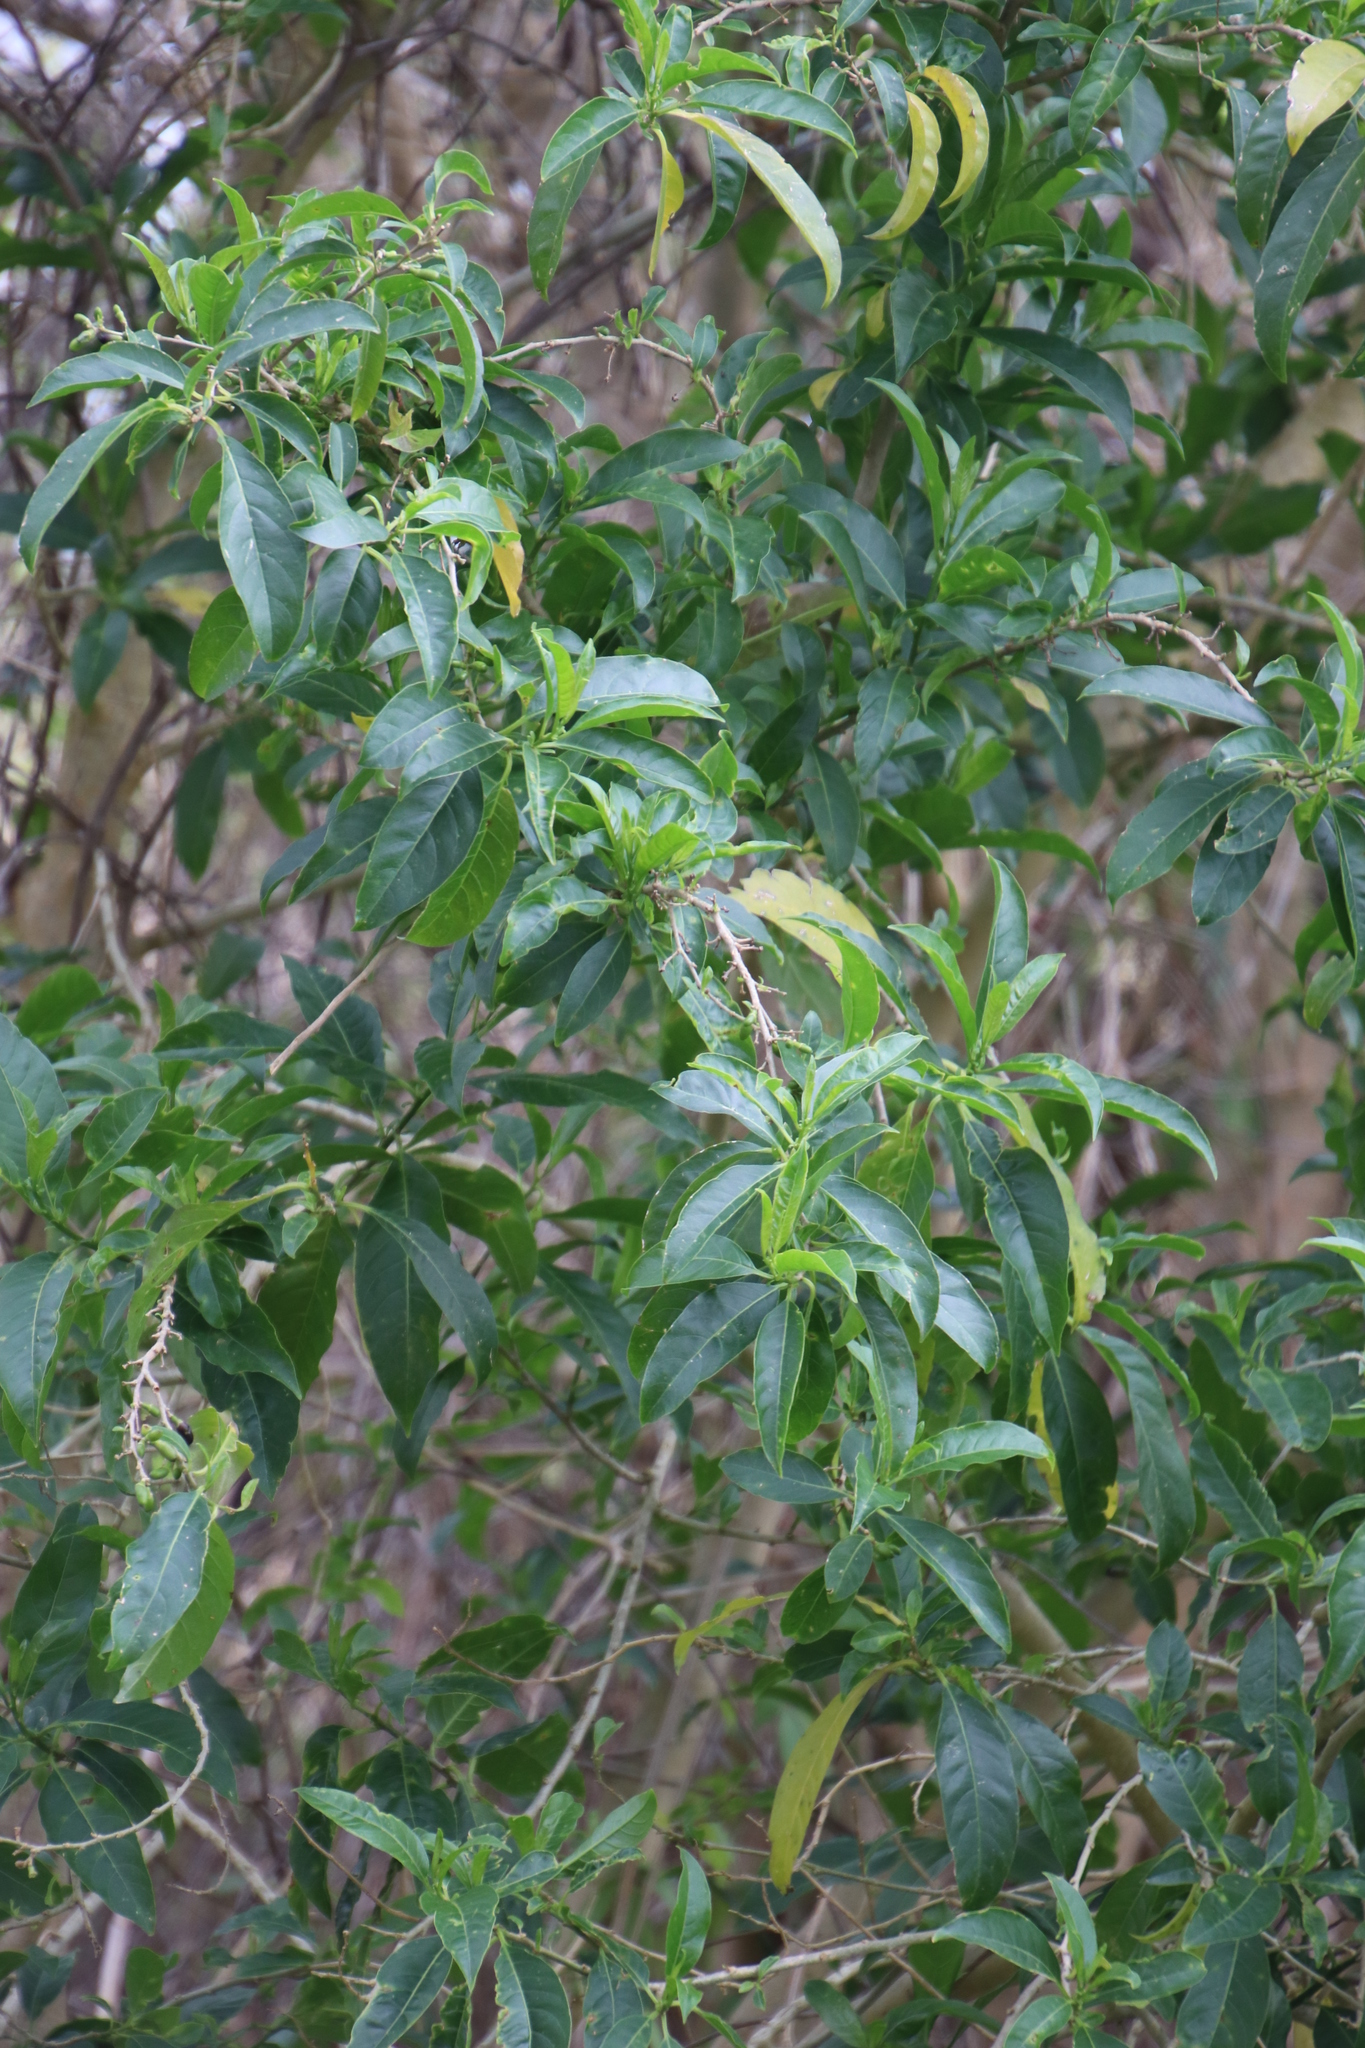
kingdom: Plantae
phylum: Tracheophyta
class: Magnoliopsida
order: Solanales
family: Solanaceae
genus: Cestrum
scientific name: Cestrum laevigatum
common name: Inkberry
